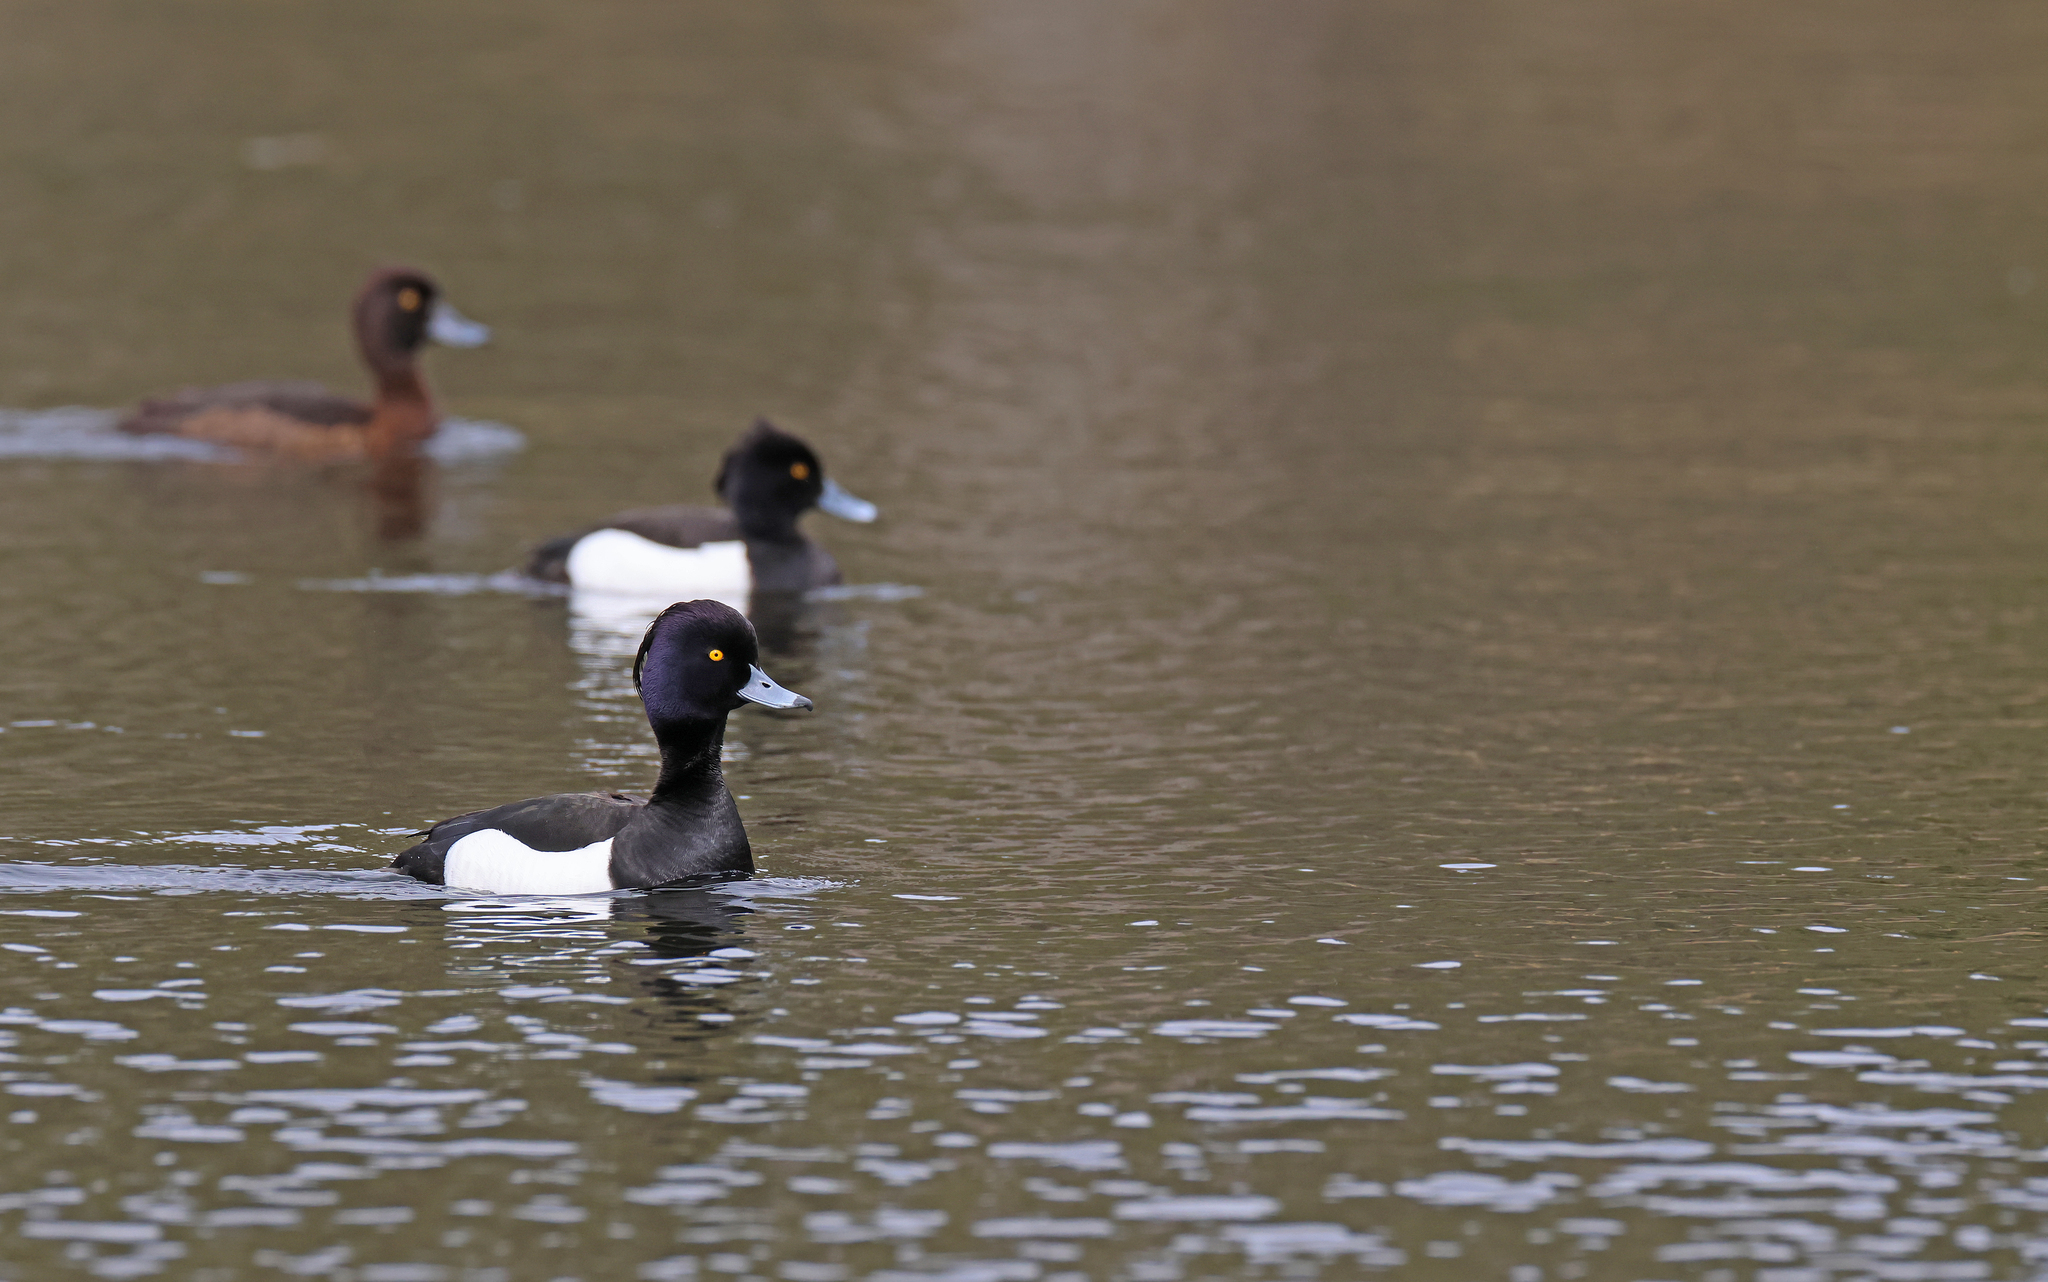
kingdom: Animalia
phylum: Chordata
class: Aves
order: Anseriformes
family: Anatidae
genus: Aythya
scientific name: Aythya fuligula
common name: Tufted duck
